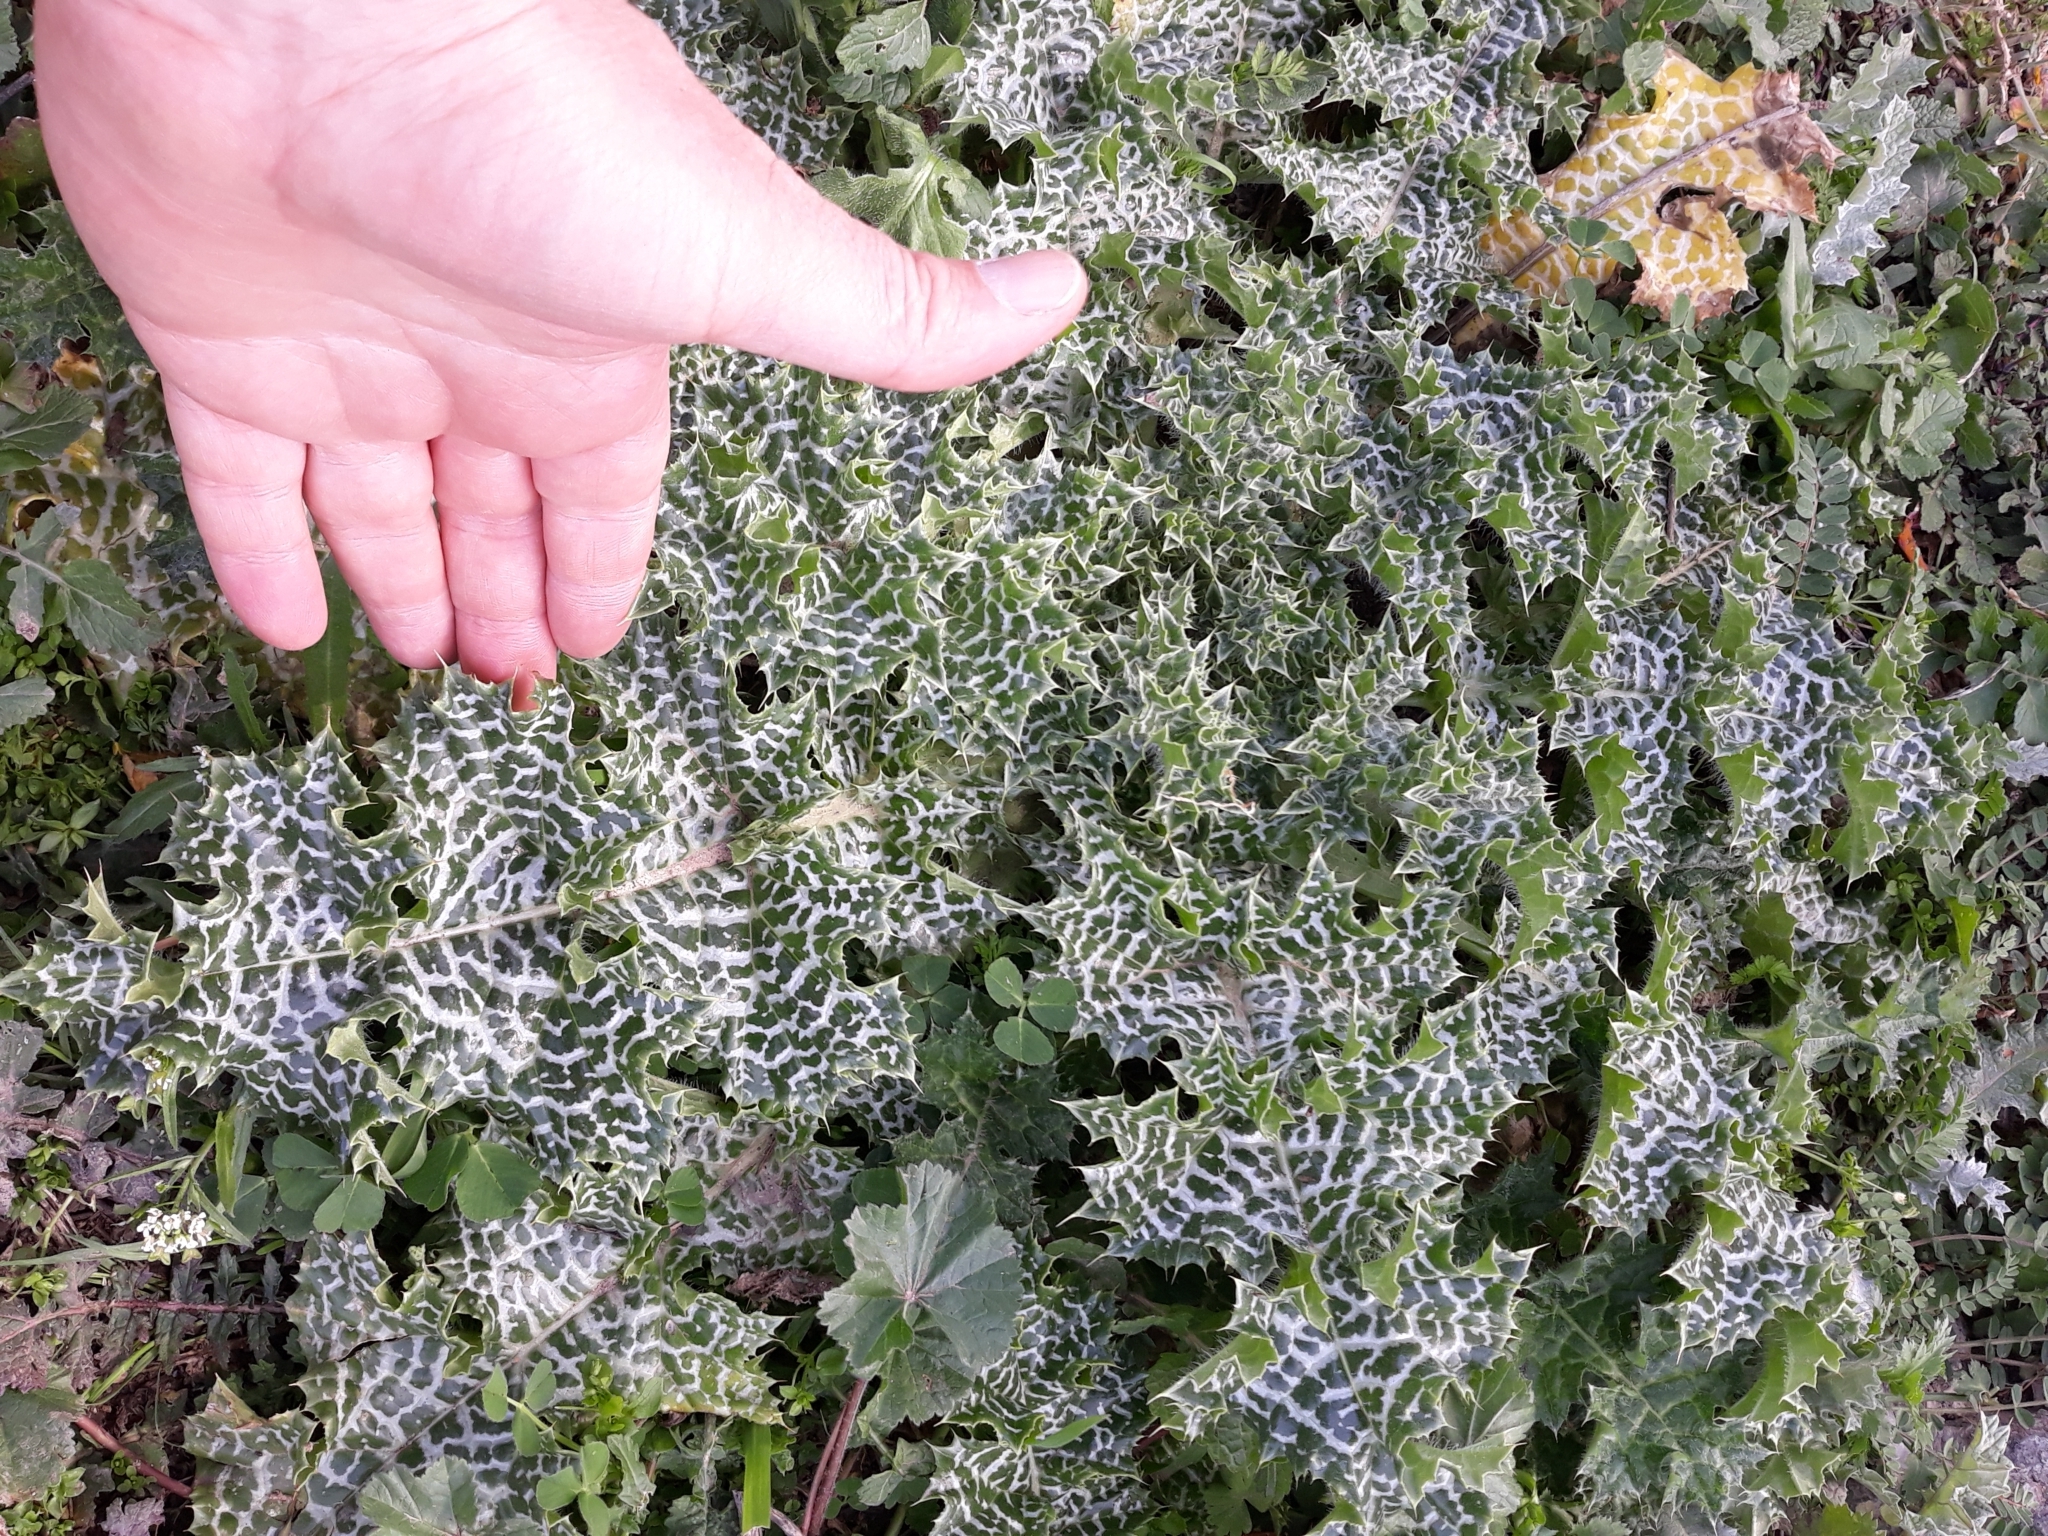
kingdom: Plantae
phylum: Tracheophyta
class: Magnoliopsida
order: Asterales
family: Asteraceae
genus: Silybum
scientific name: Silybum marianum
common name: Milk thistle
